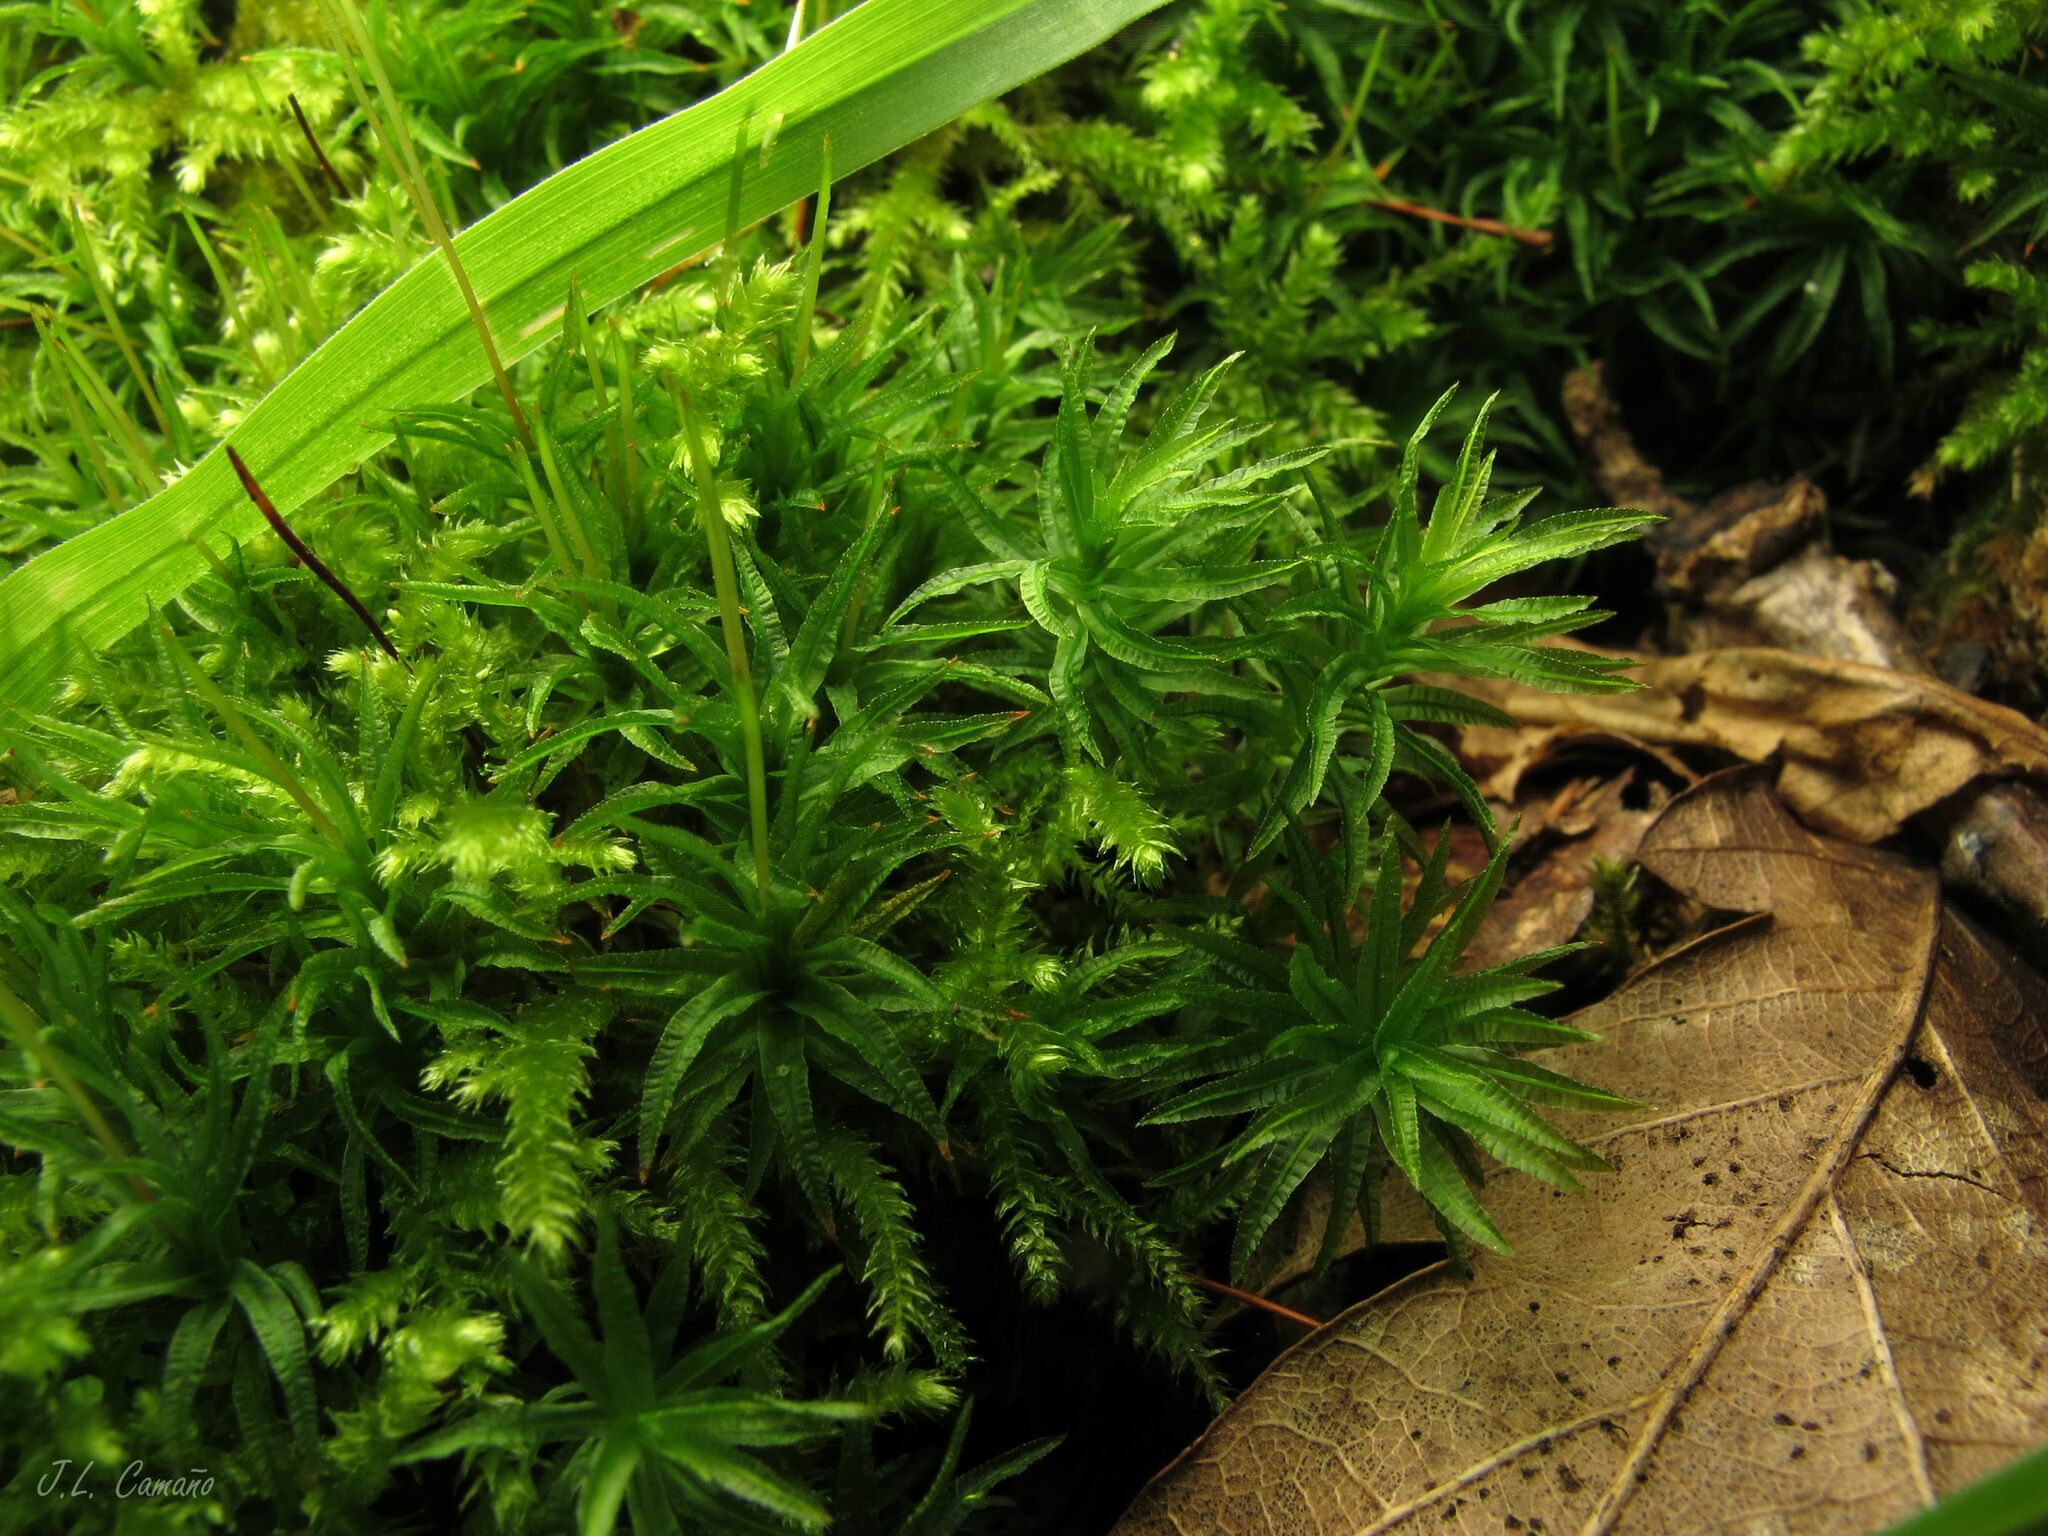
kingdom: Plantae
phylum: Bryophyta
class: Polytrichopsida
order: Polytrichales
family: Polytrichaceae
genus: Atrichum
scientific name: Atrichum undulatum
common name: Common smoothcap
